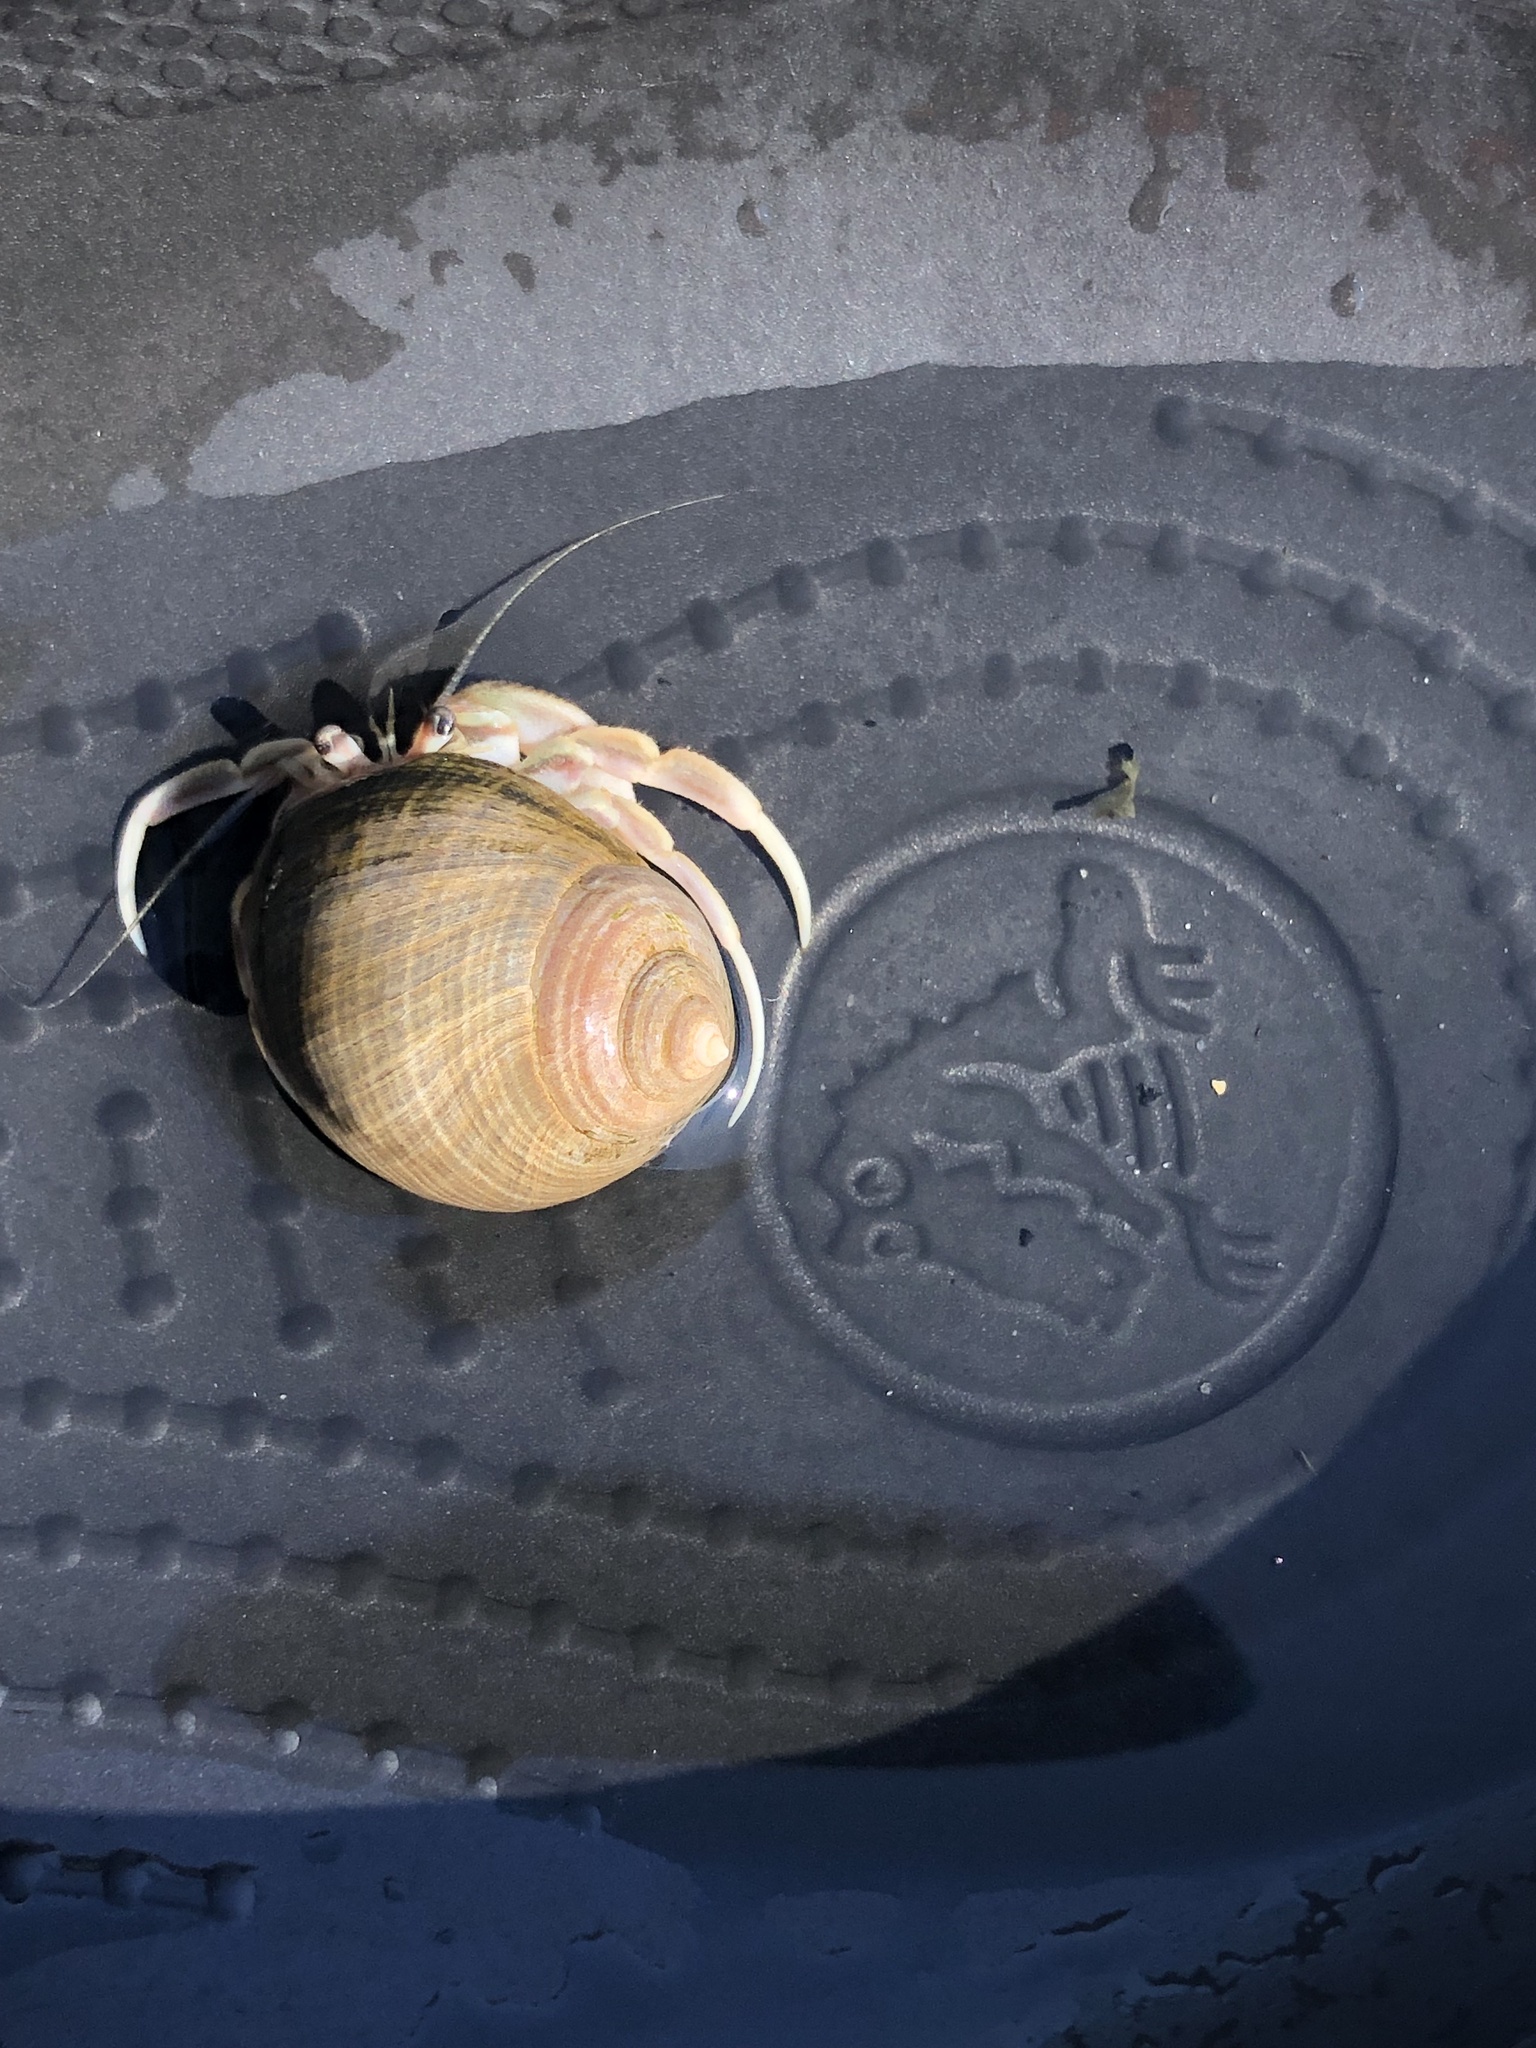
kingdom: Animalia
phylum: Arthropoda
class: Malacostraca
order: Decapoda
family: Paguridae
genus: Pagurus
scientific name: Pagurus longicarpus
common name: Long-armed hermit crab
